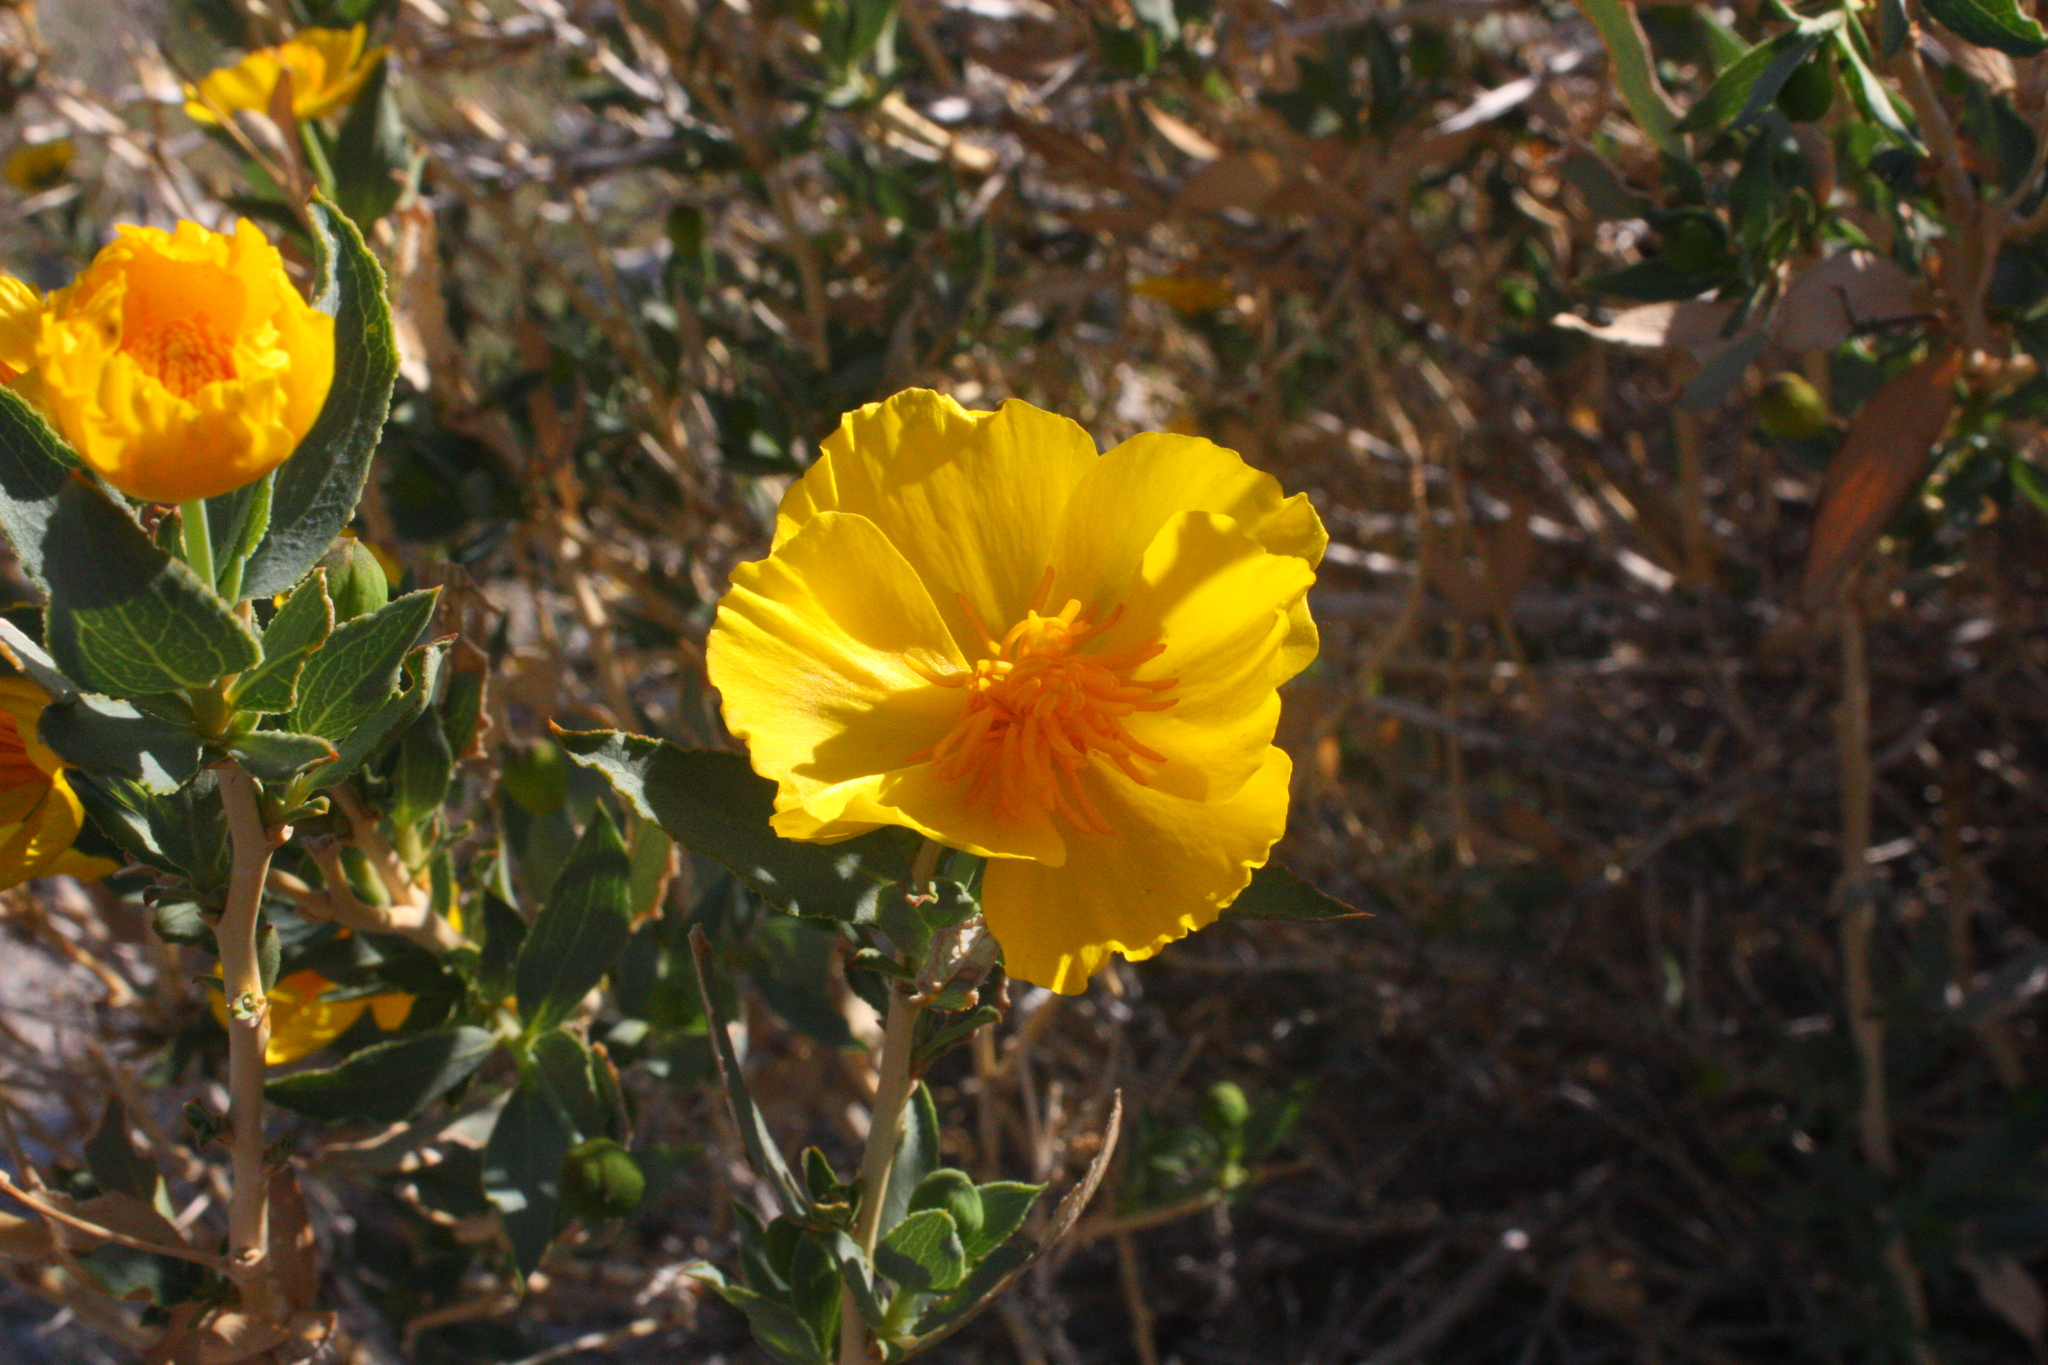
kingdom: Plantae
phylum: Tracheophyta
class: Magnoliopsida
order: Ranunculales
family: Papaveraceae
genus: Dendromecon
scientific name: Dendromecon rigida
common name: Tree poppy
